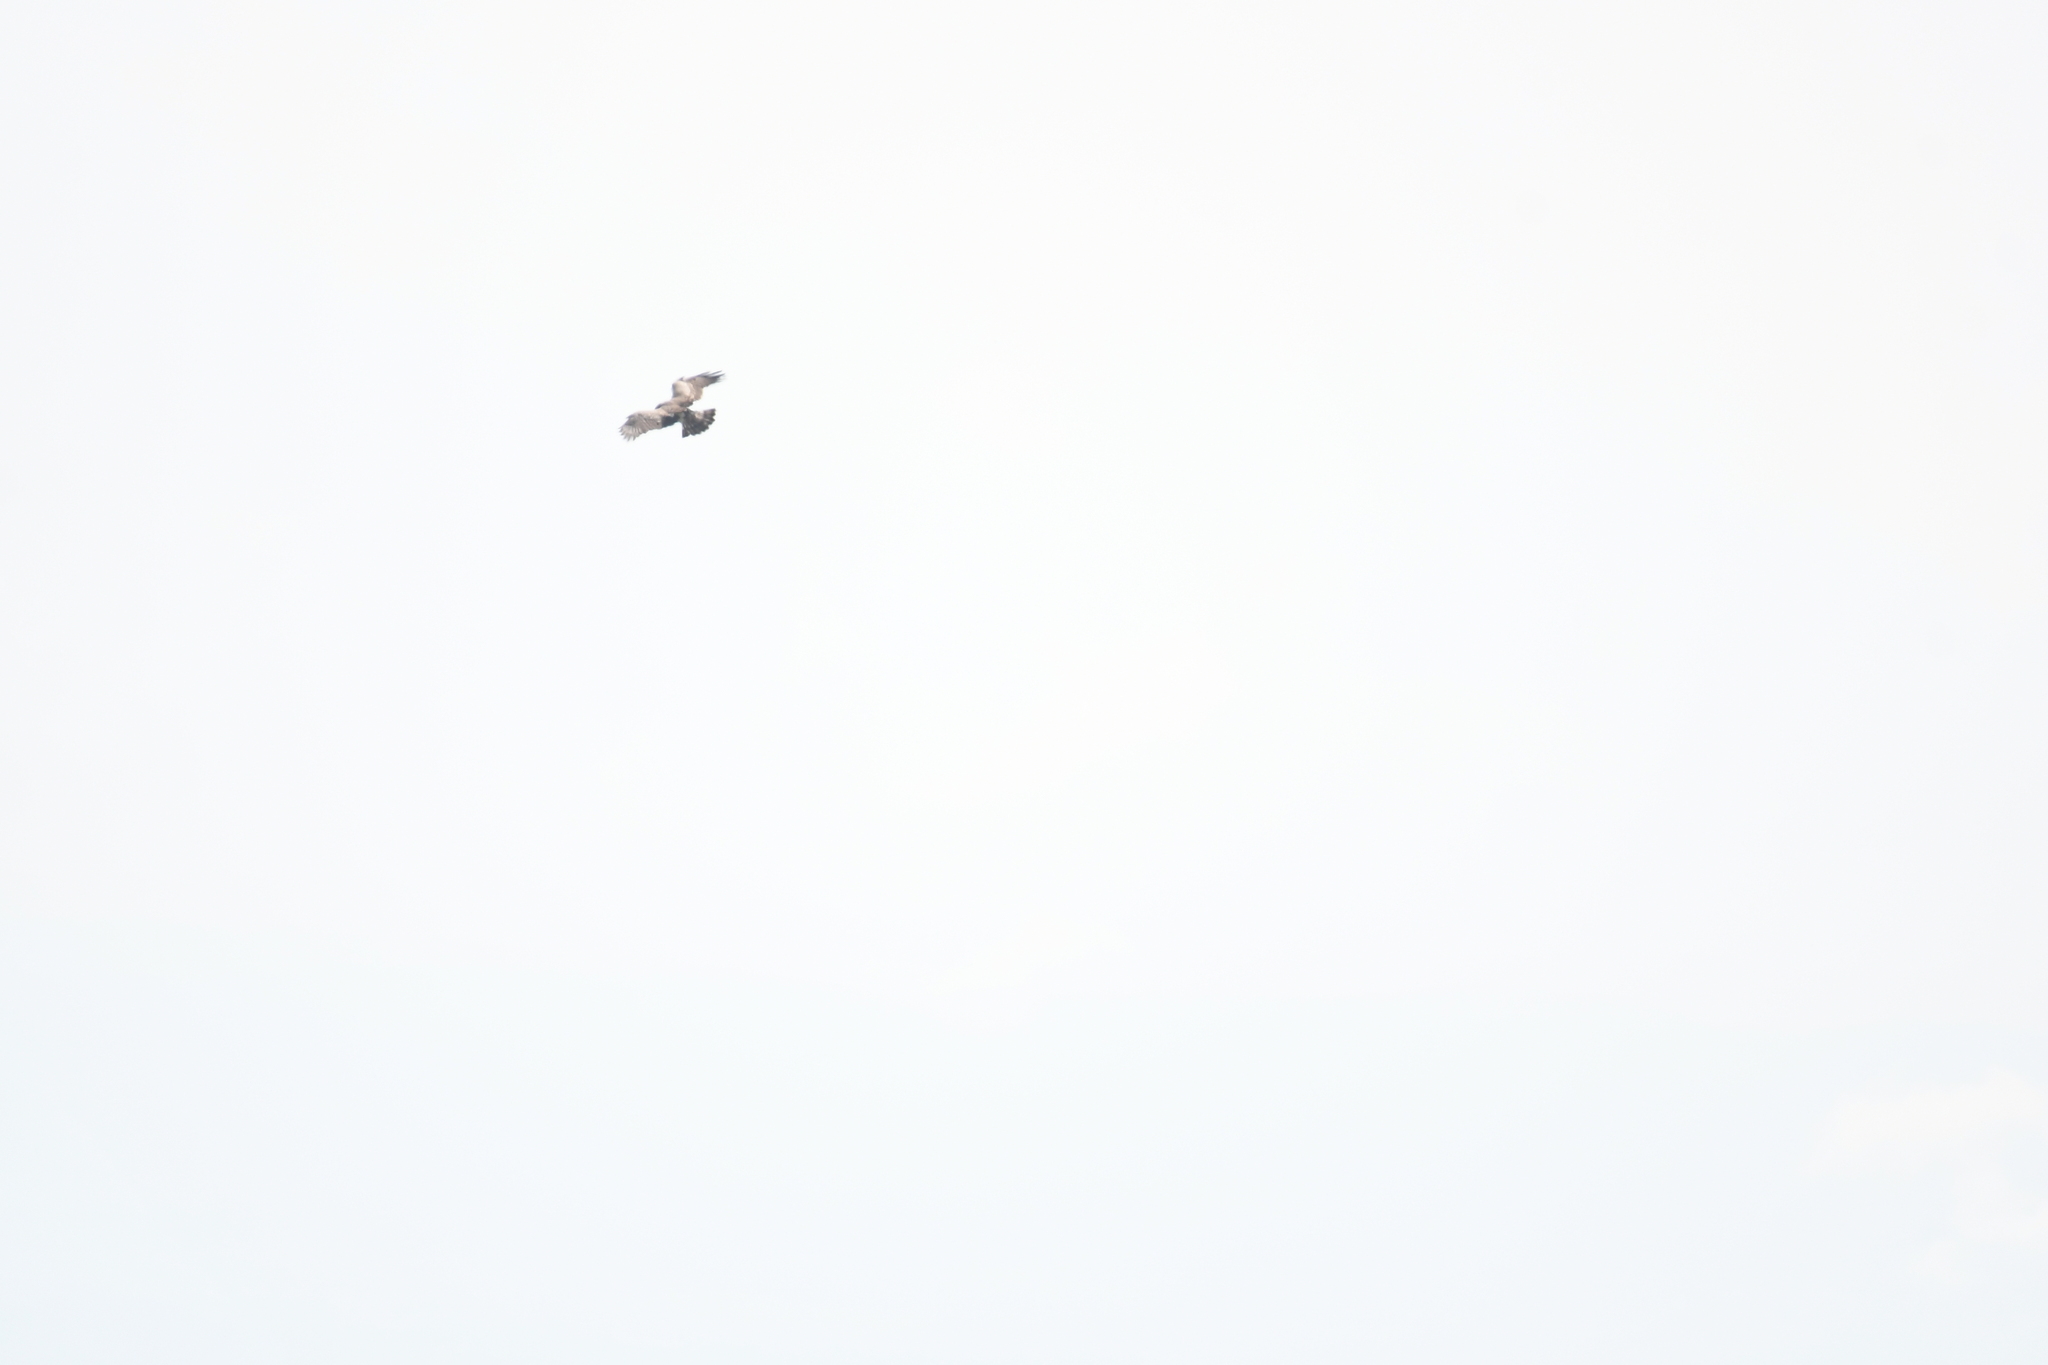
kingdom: Animalia
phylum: Chordata
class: Aves
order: Accipitriformes
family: Accipitridae
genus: Circaetus
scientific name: Circaetus gallicus
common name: Short-toed snake eagle
